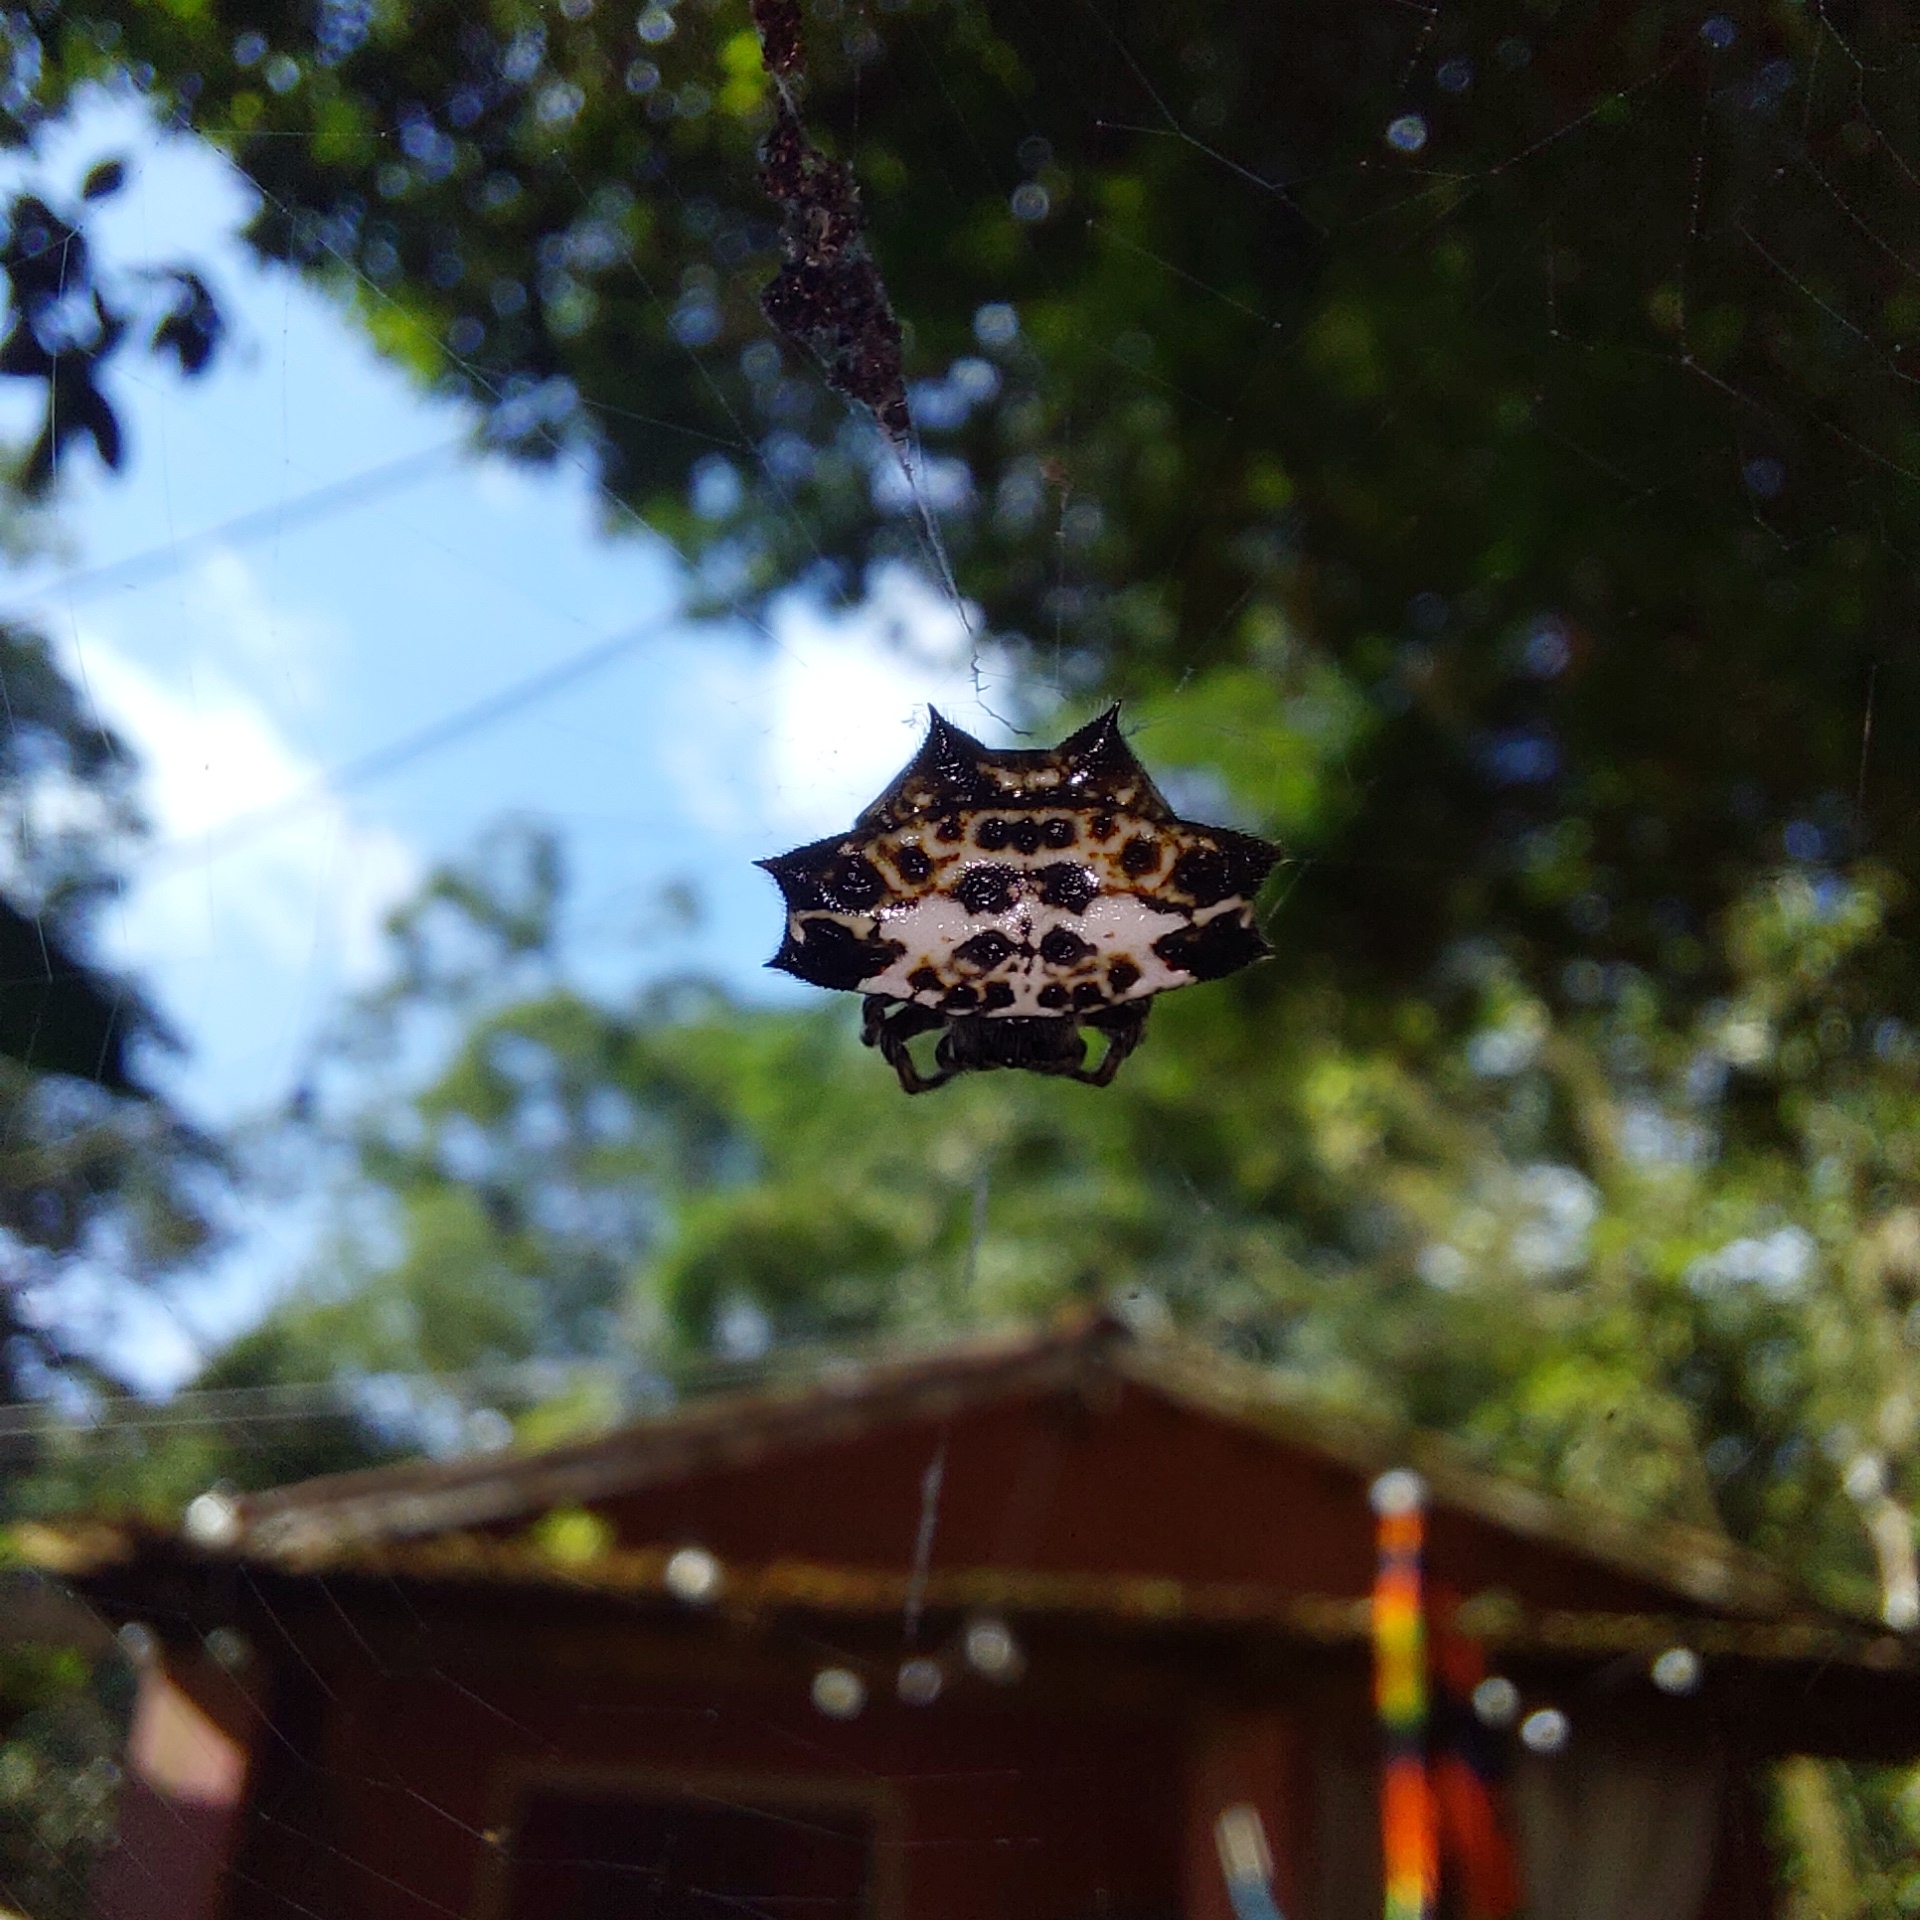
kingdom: Animalia
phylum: Arthropoda
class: Arachnida
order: Araneae
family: Araneidae
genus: Gasteracantha
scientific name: Gasteracantha cancriformis
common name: Orb weavers
